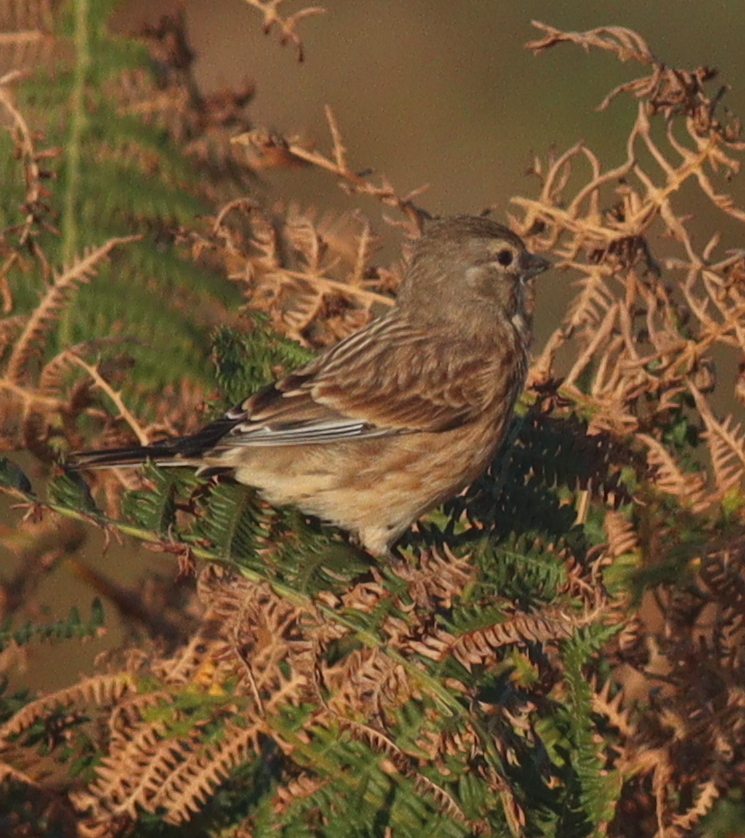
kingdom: Animalia
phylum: Chordata
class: Aves
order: Passeriformes
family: Fringillidae
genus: Linaria
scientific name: Linaria cannabina
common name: Common linnet
